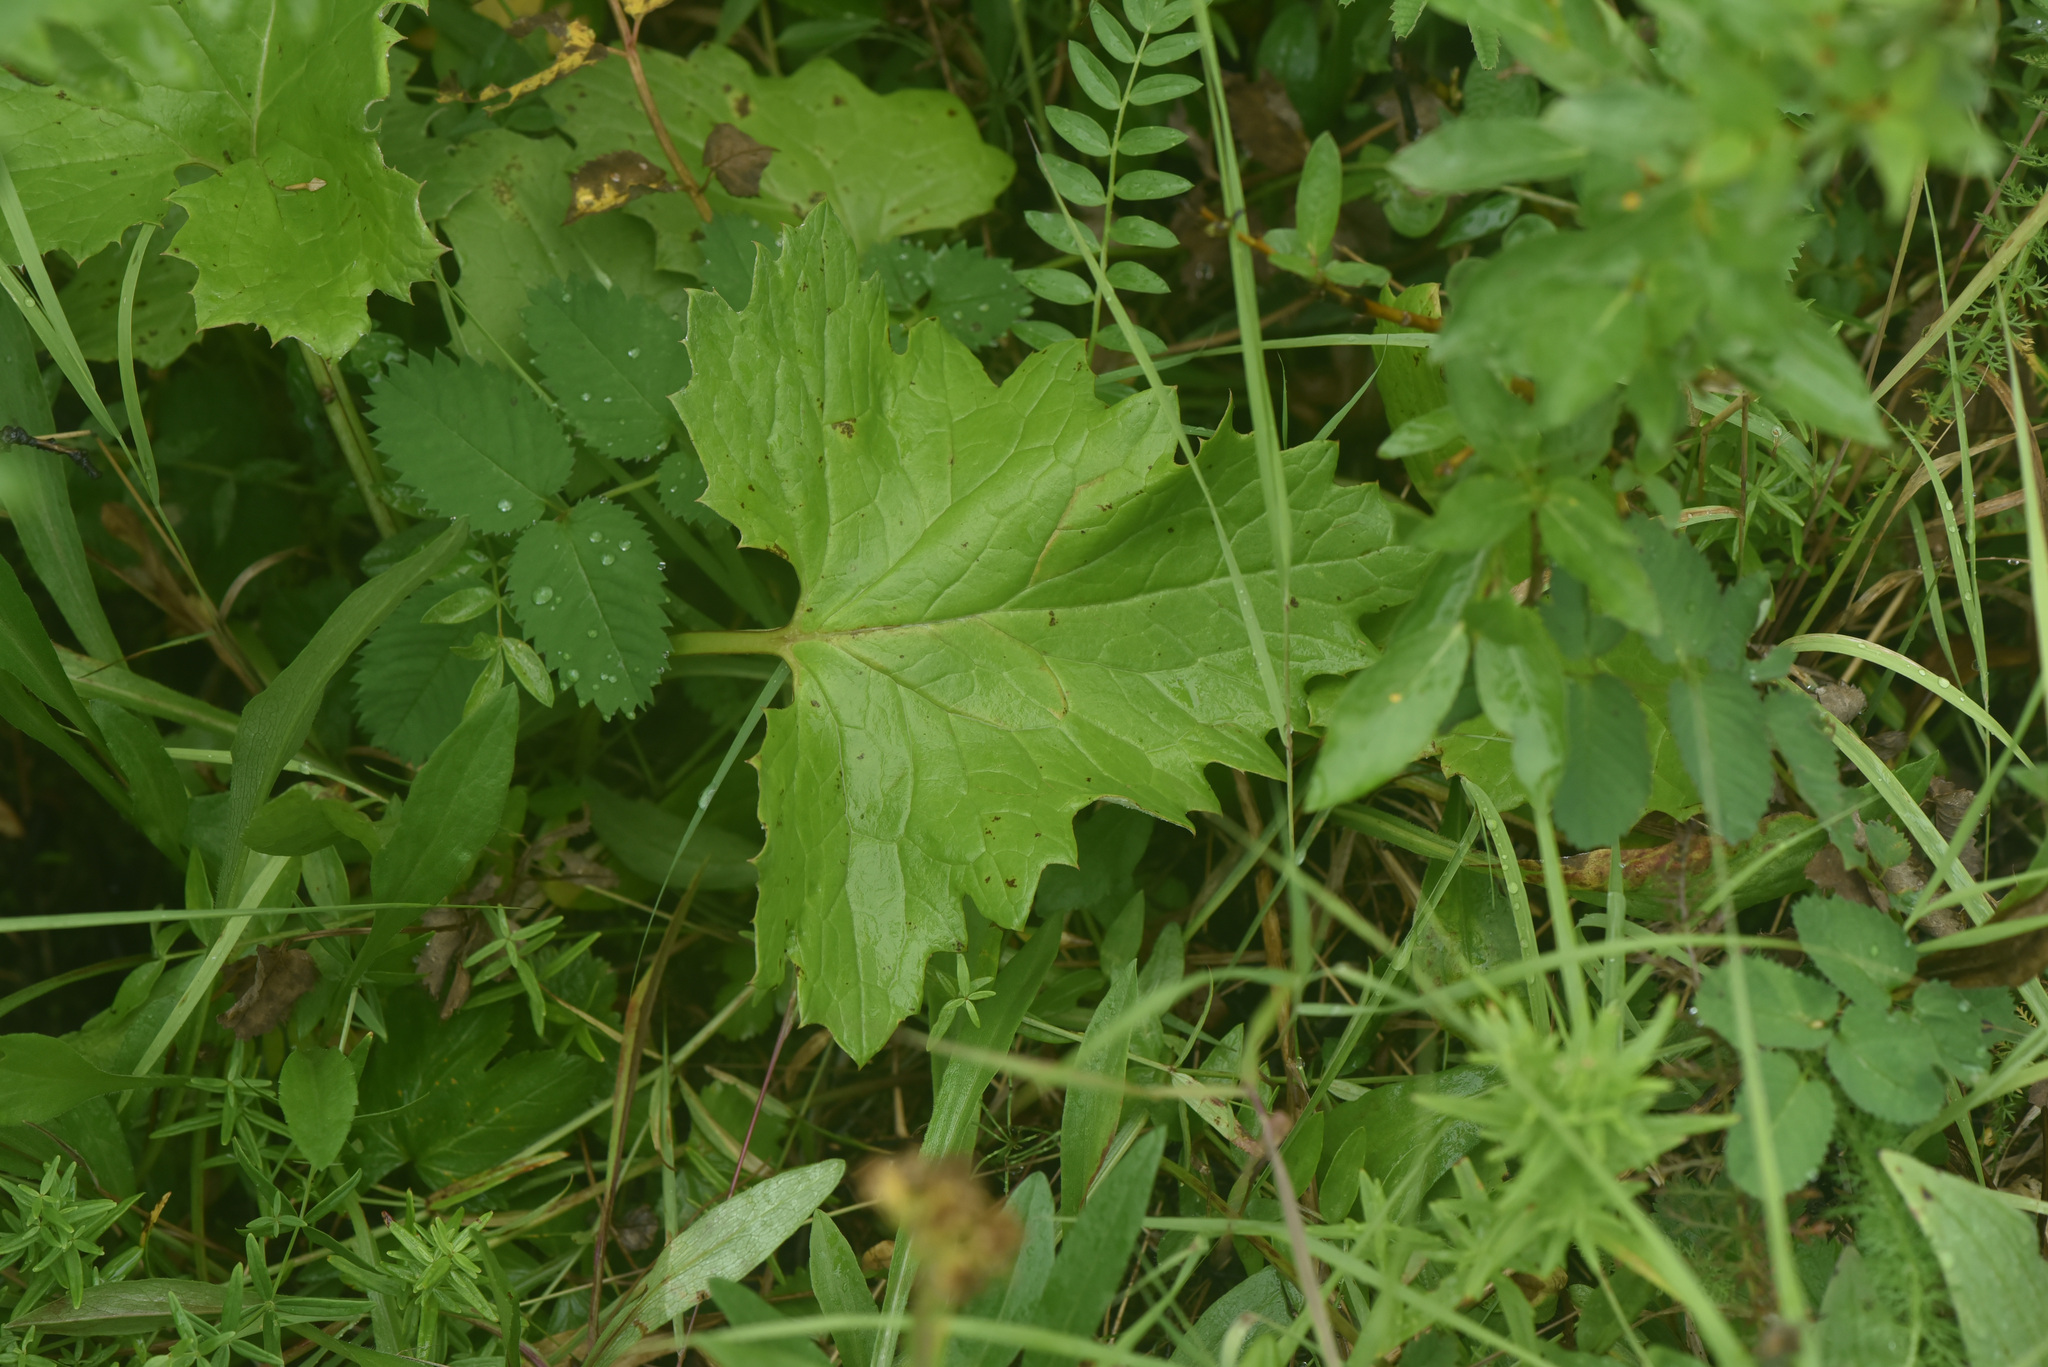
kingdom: Plantae
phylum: Tracheophyta
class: Magnoliopsida
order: Asterales
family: Asteraceae
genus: Petasites
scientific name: Petasites frigidus
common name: Arctic butterbur
